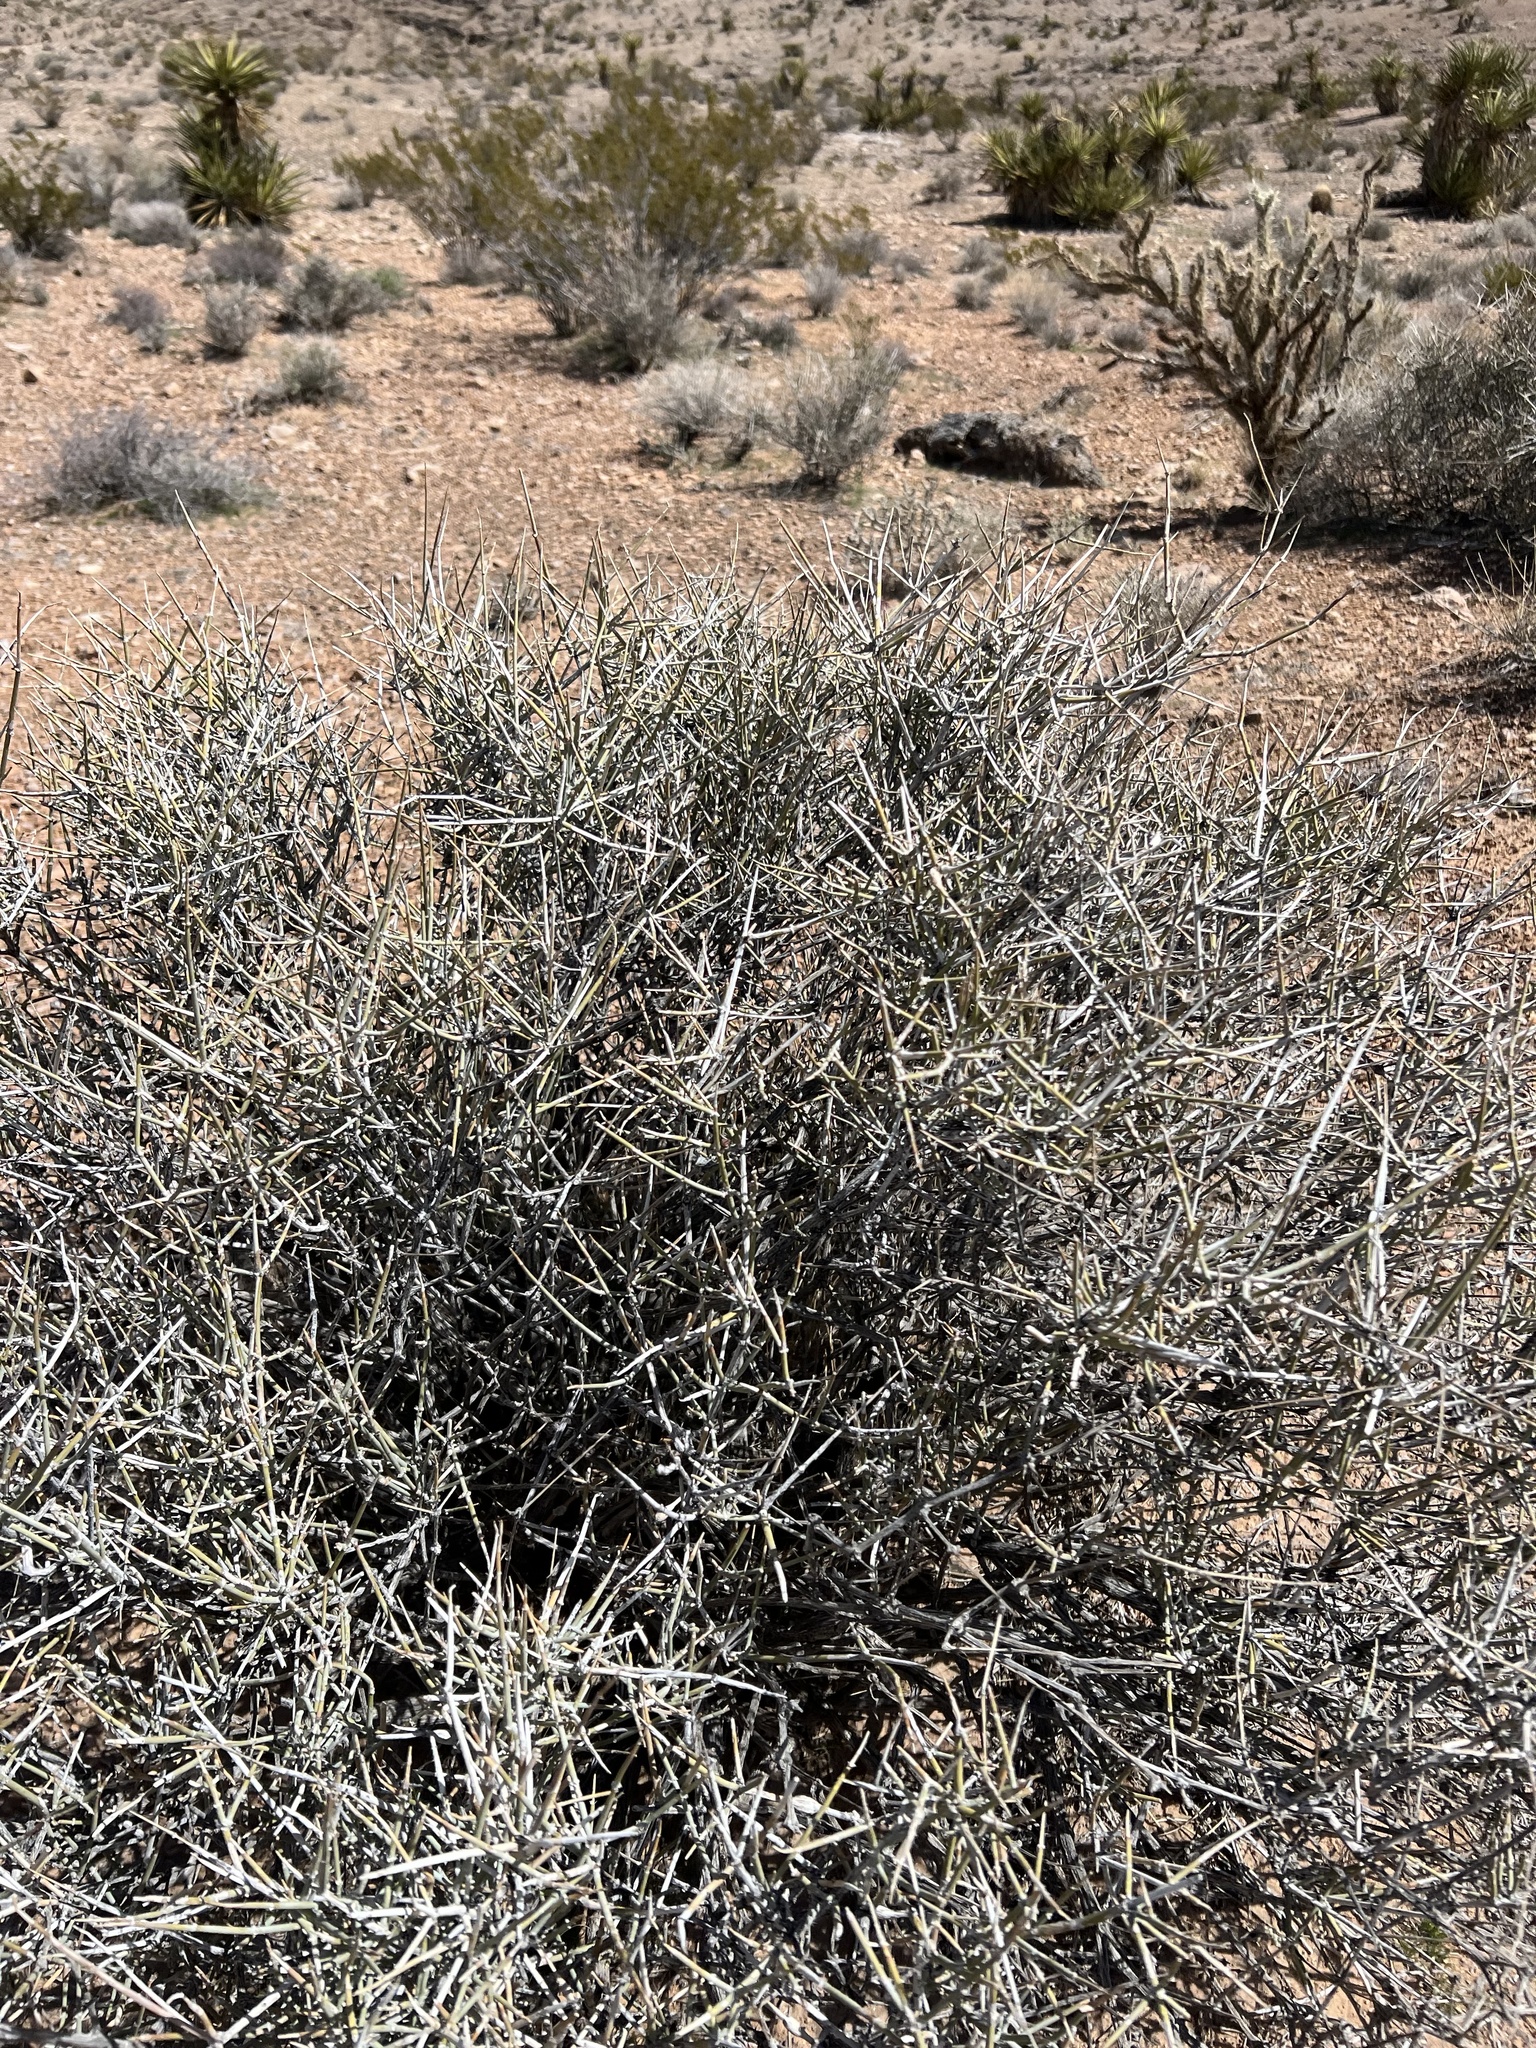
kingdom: Plantae
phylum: Tracheophyta
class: Gnetopsida
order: Ephedrales
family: Ephedraceae
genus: Ephedra
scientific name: Ephedra nevadensis
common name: Gray ephedra
